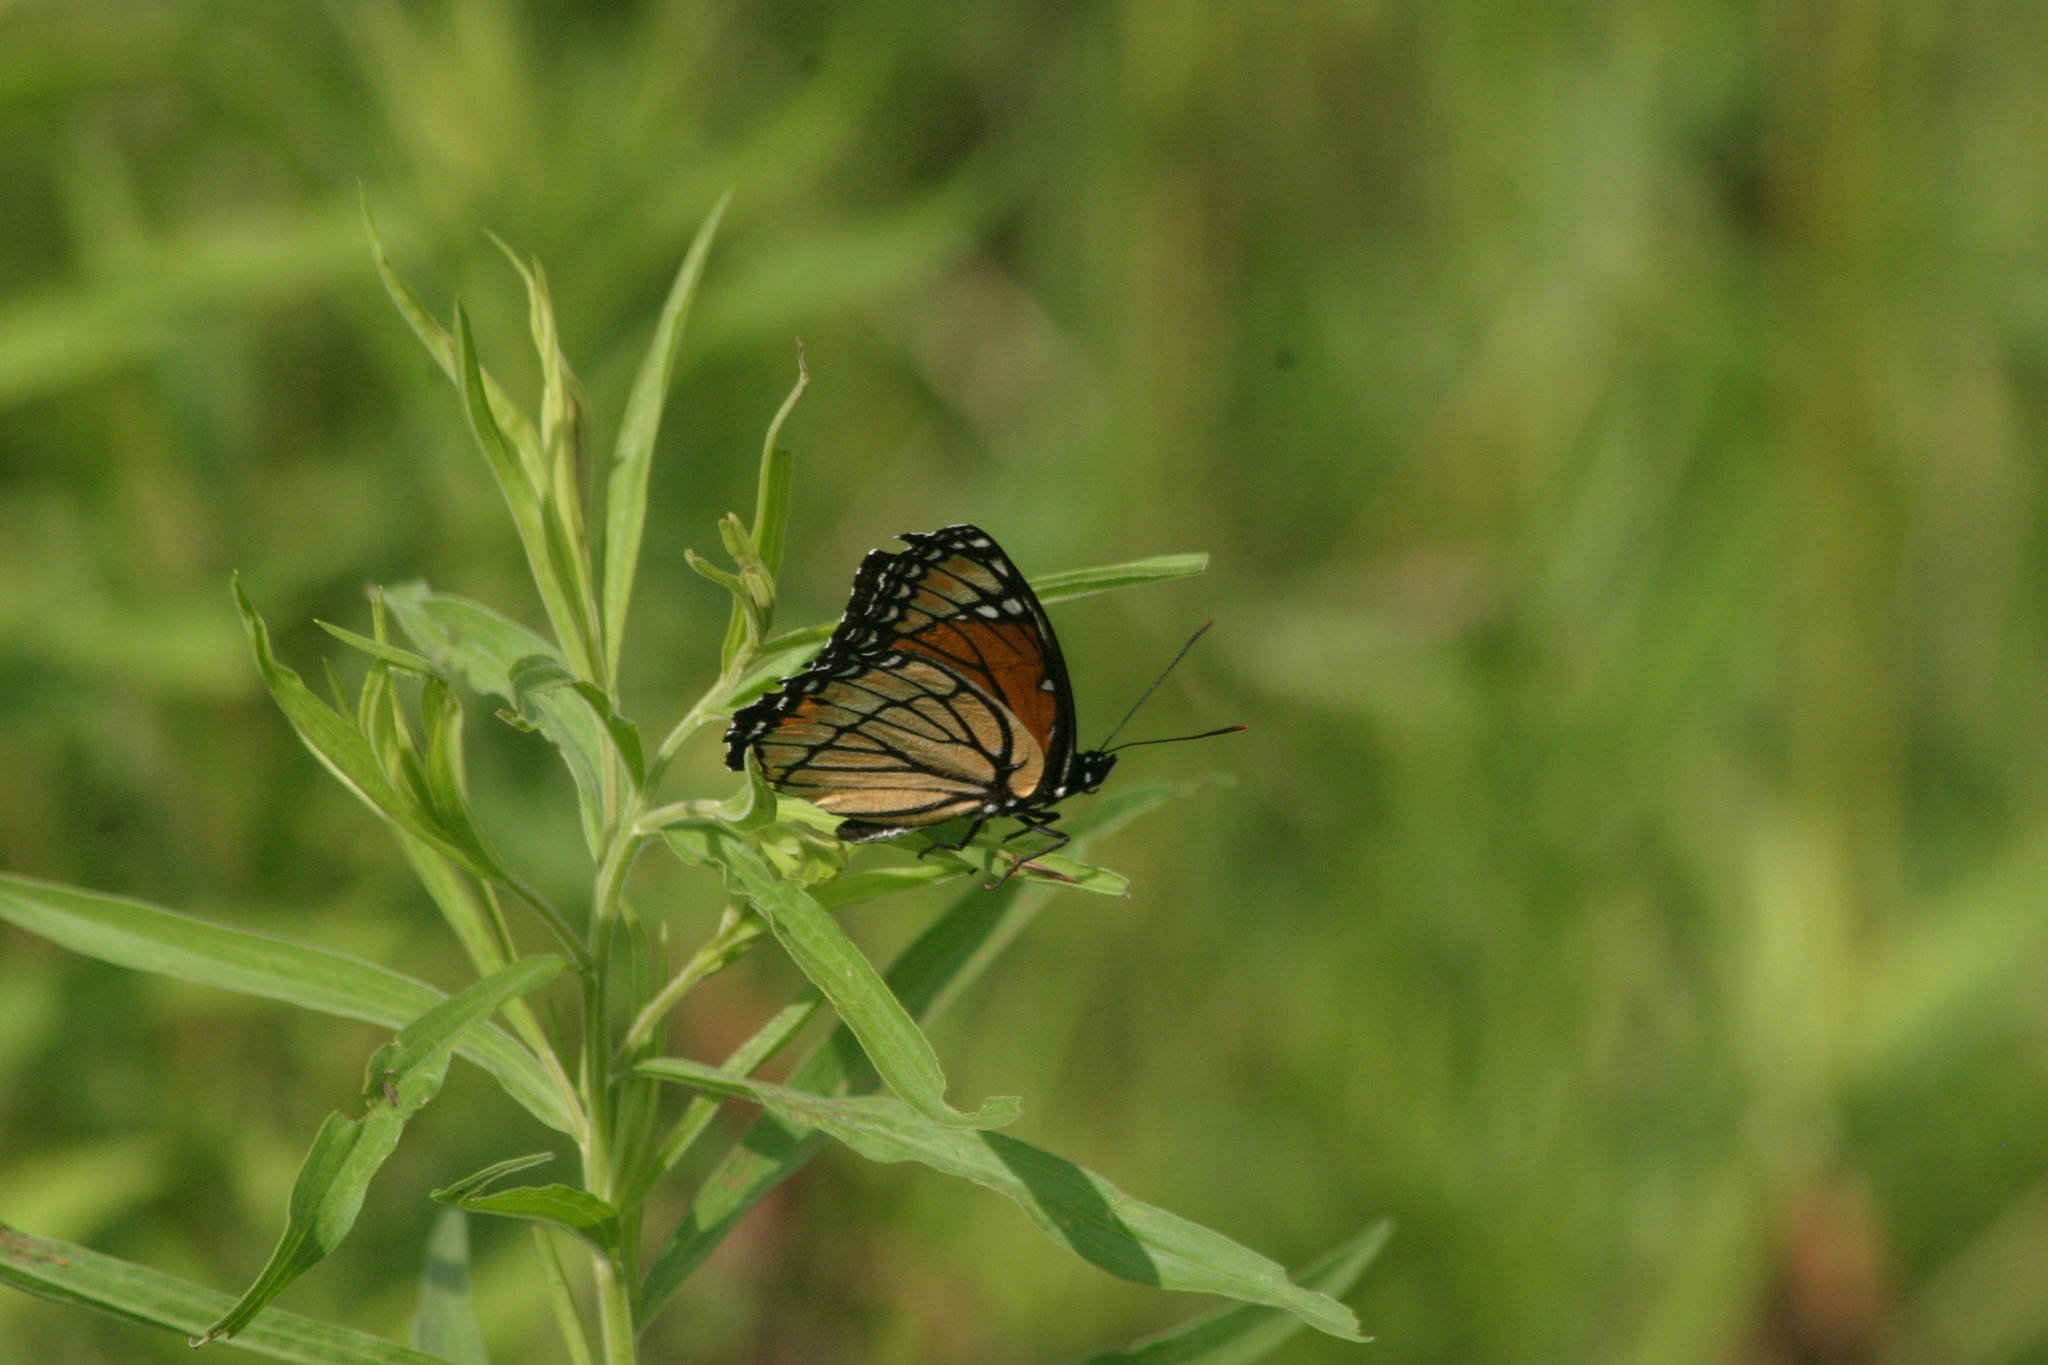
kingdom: Animalia
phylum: Arthropoda
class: Insecta
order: Lepidoptera
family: Nymphalidae
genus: Limenitis
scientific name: Limenitis archippus
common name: Viceroy
